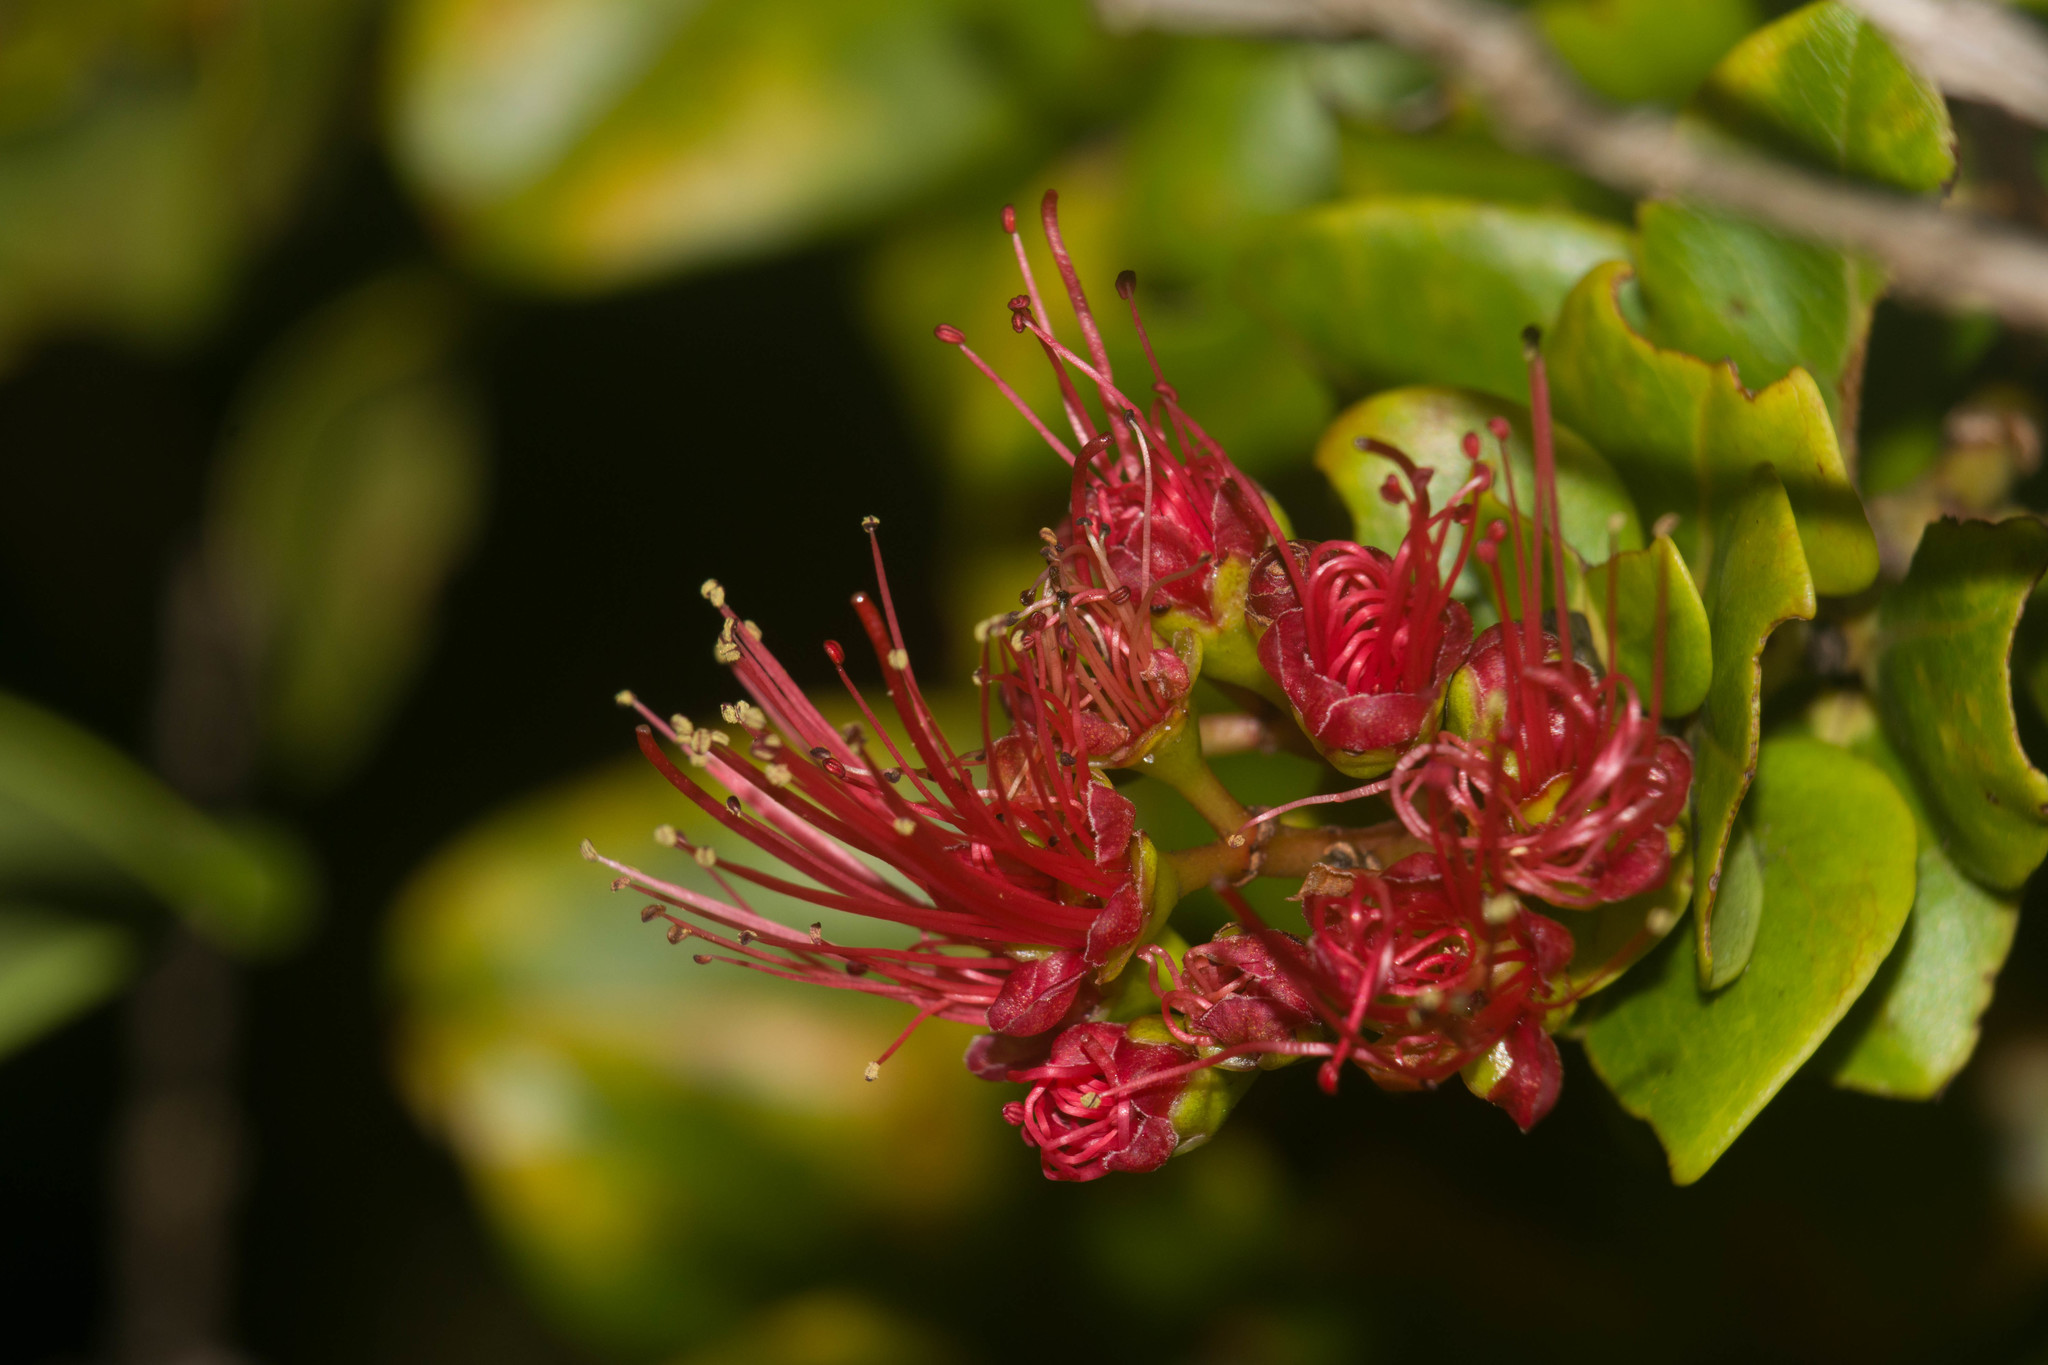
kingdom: Plantae
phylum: Tracheophyta
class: Magnoliopsida
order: Myrtales
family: Myrtaceae
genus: Metrosideros
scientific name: Metrosideros polymorpha
